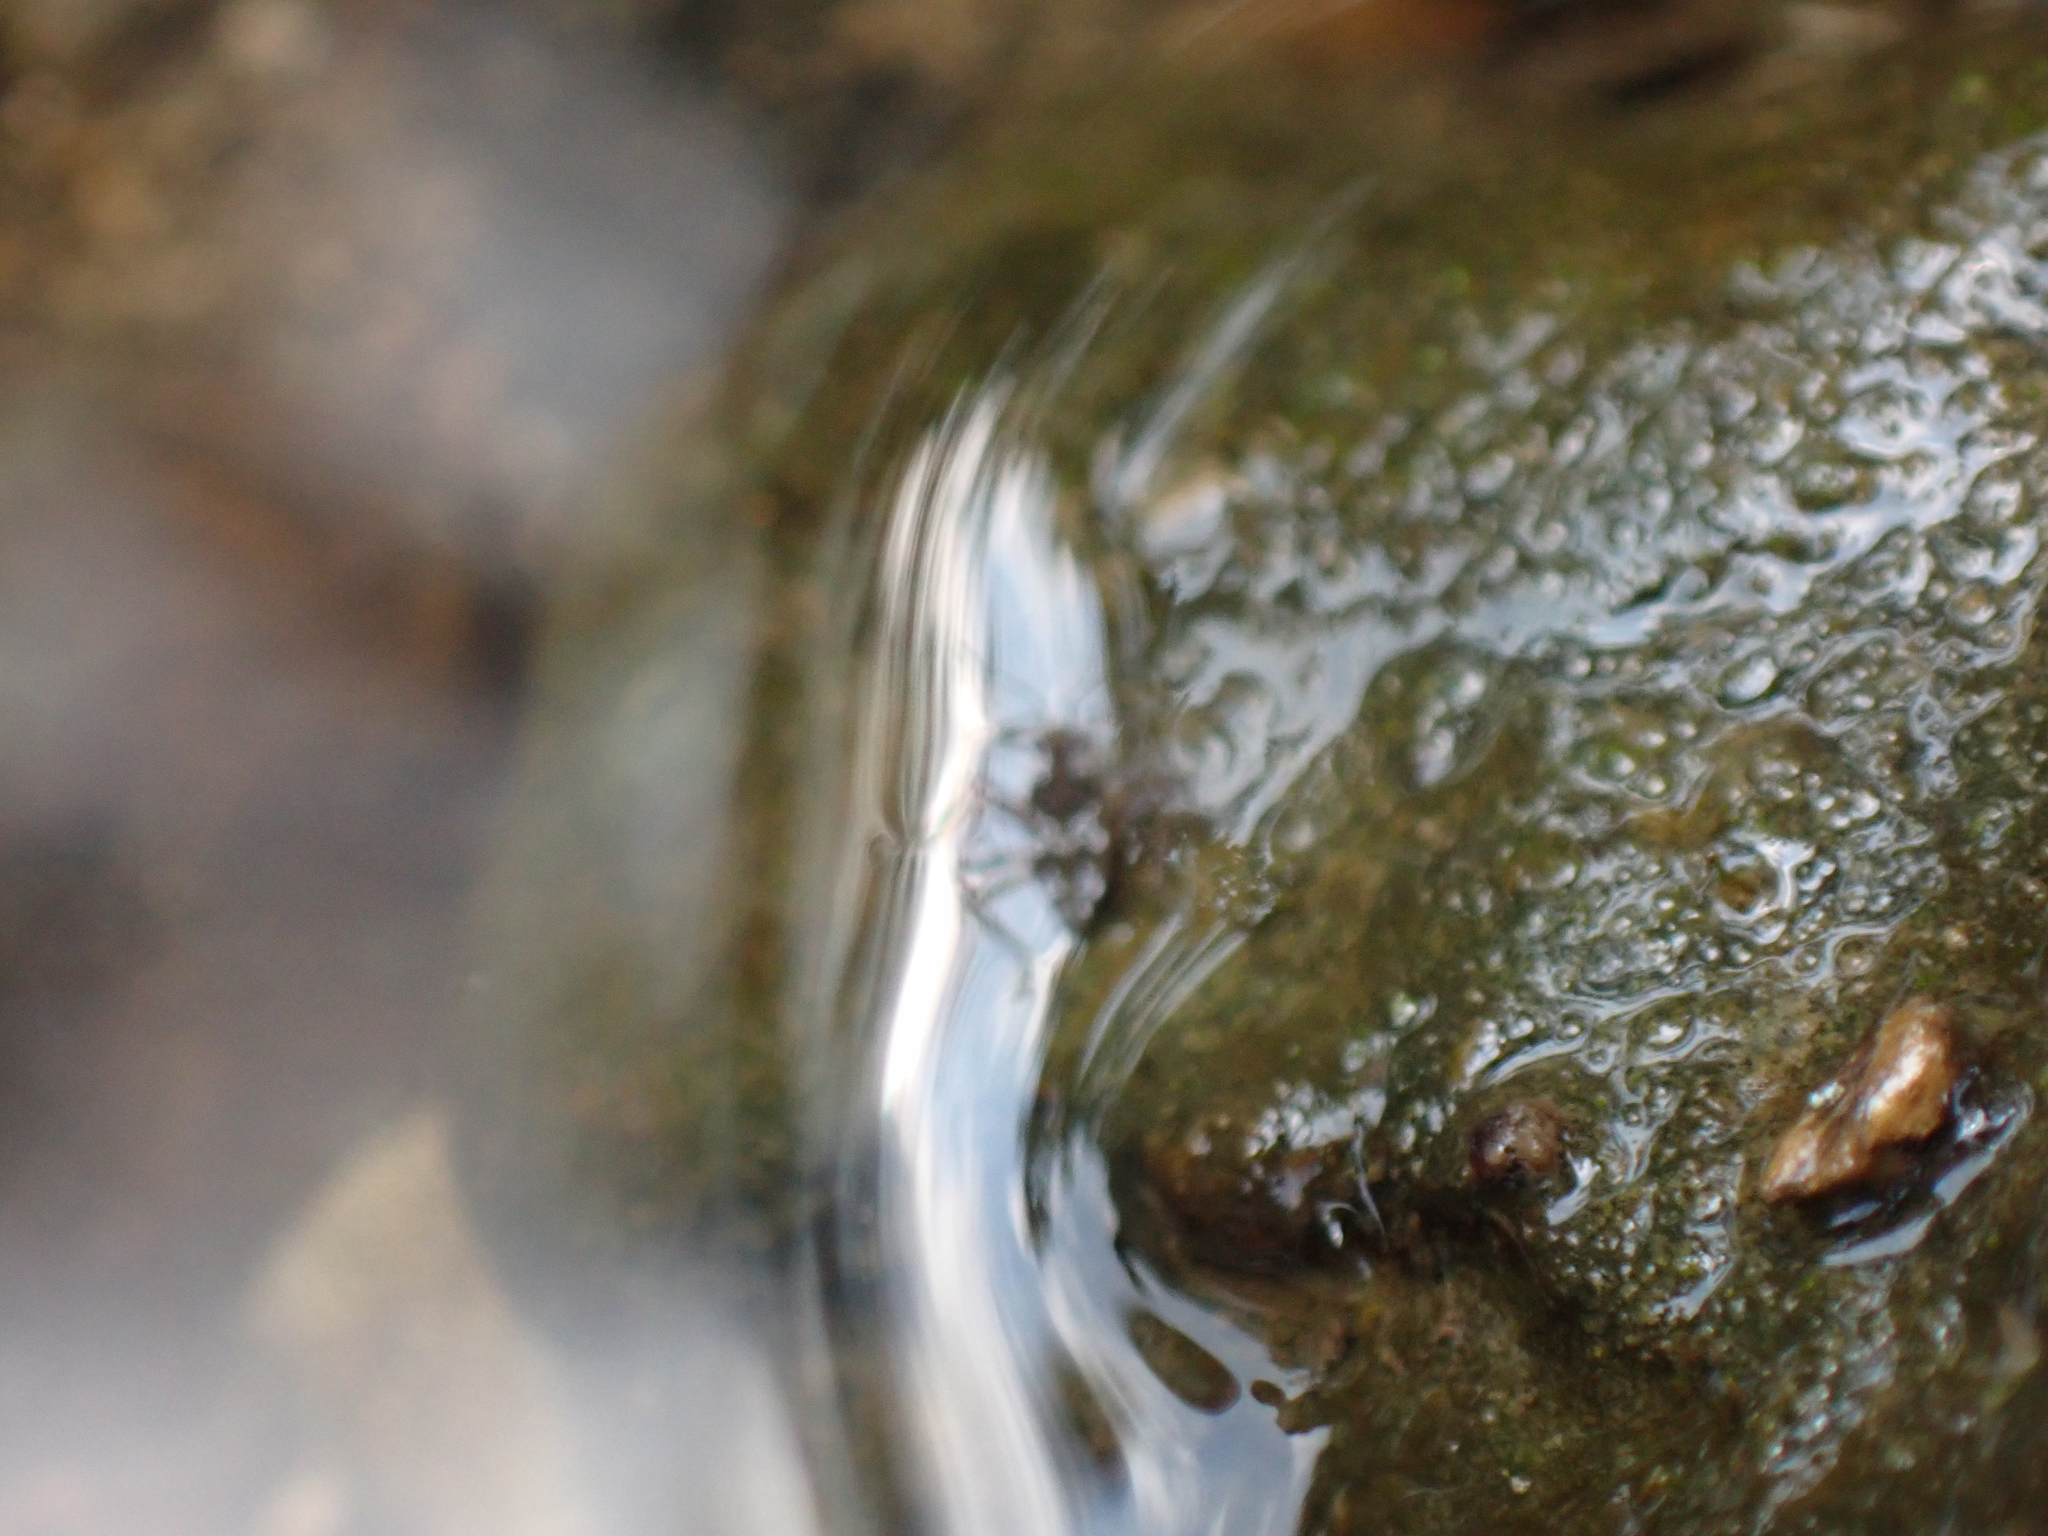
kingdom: Animalia
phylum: Arthropoda
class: Insecta
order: Hemiptera
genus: Kirkaldya
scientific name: Kirkaldya
